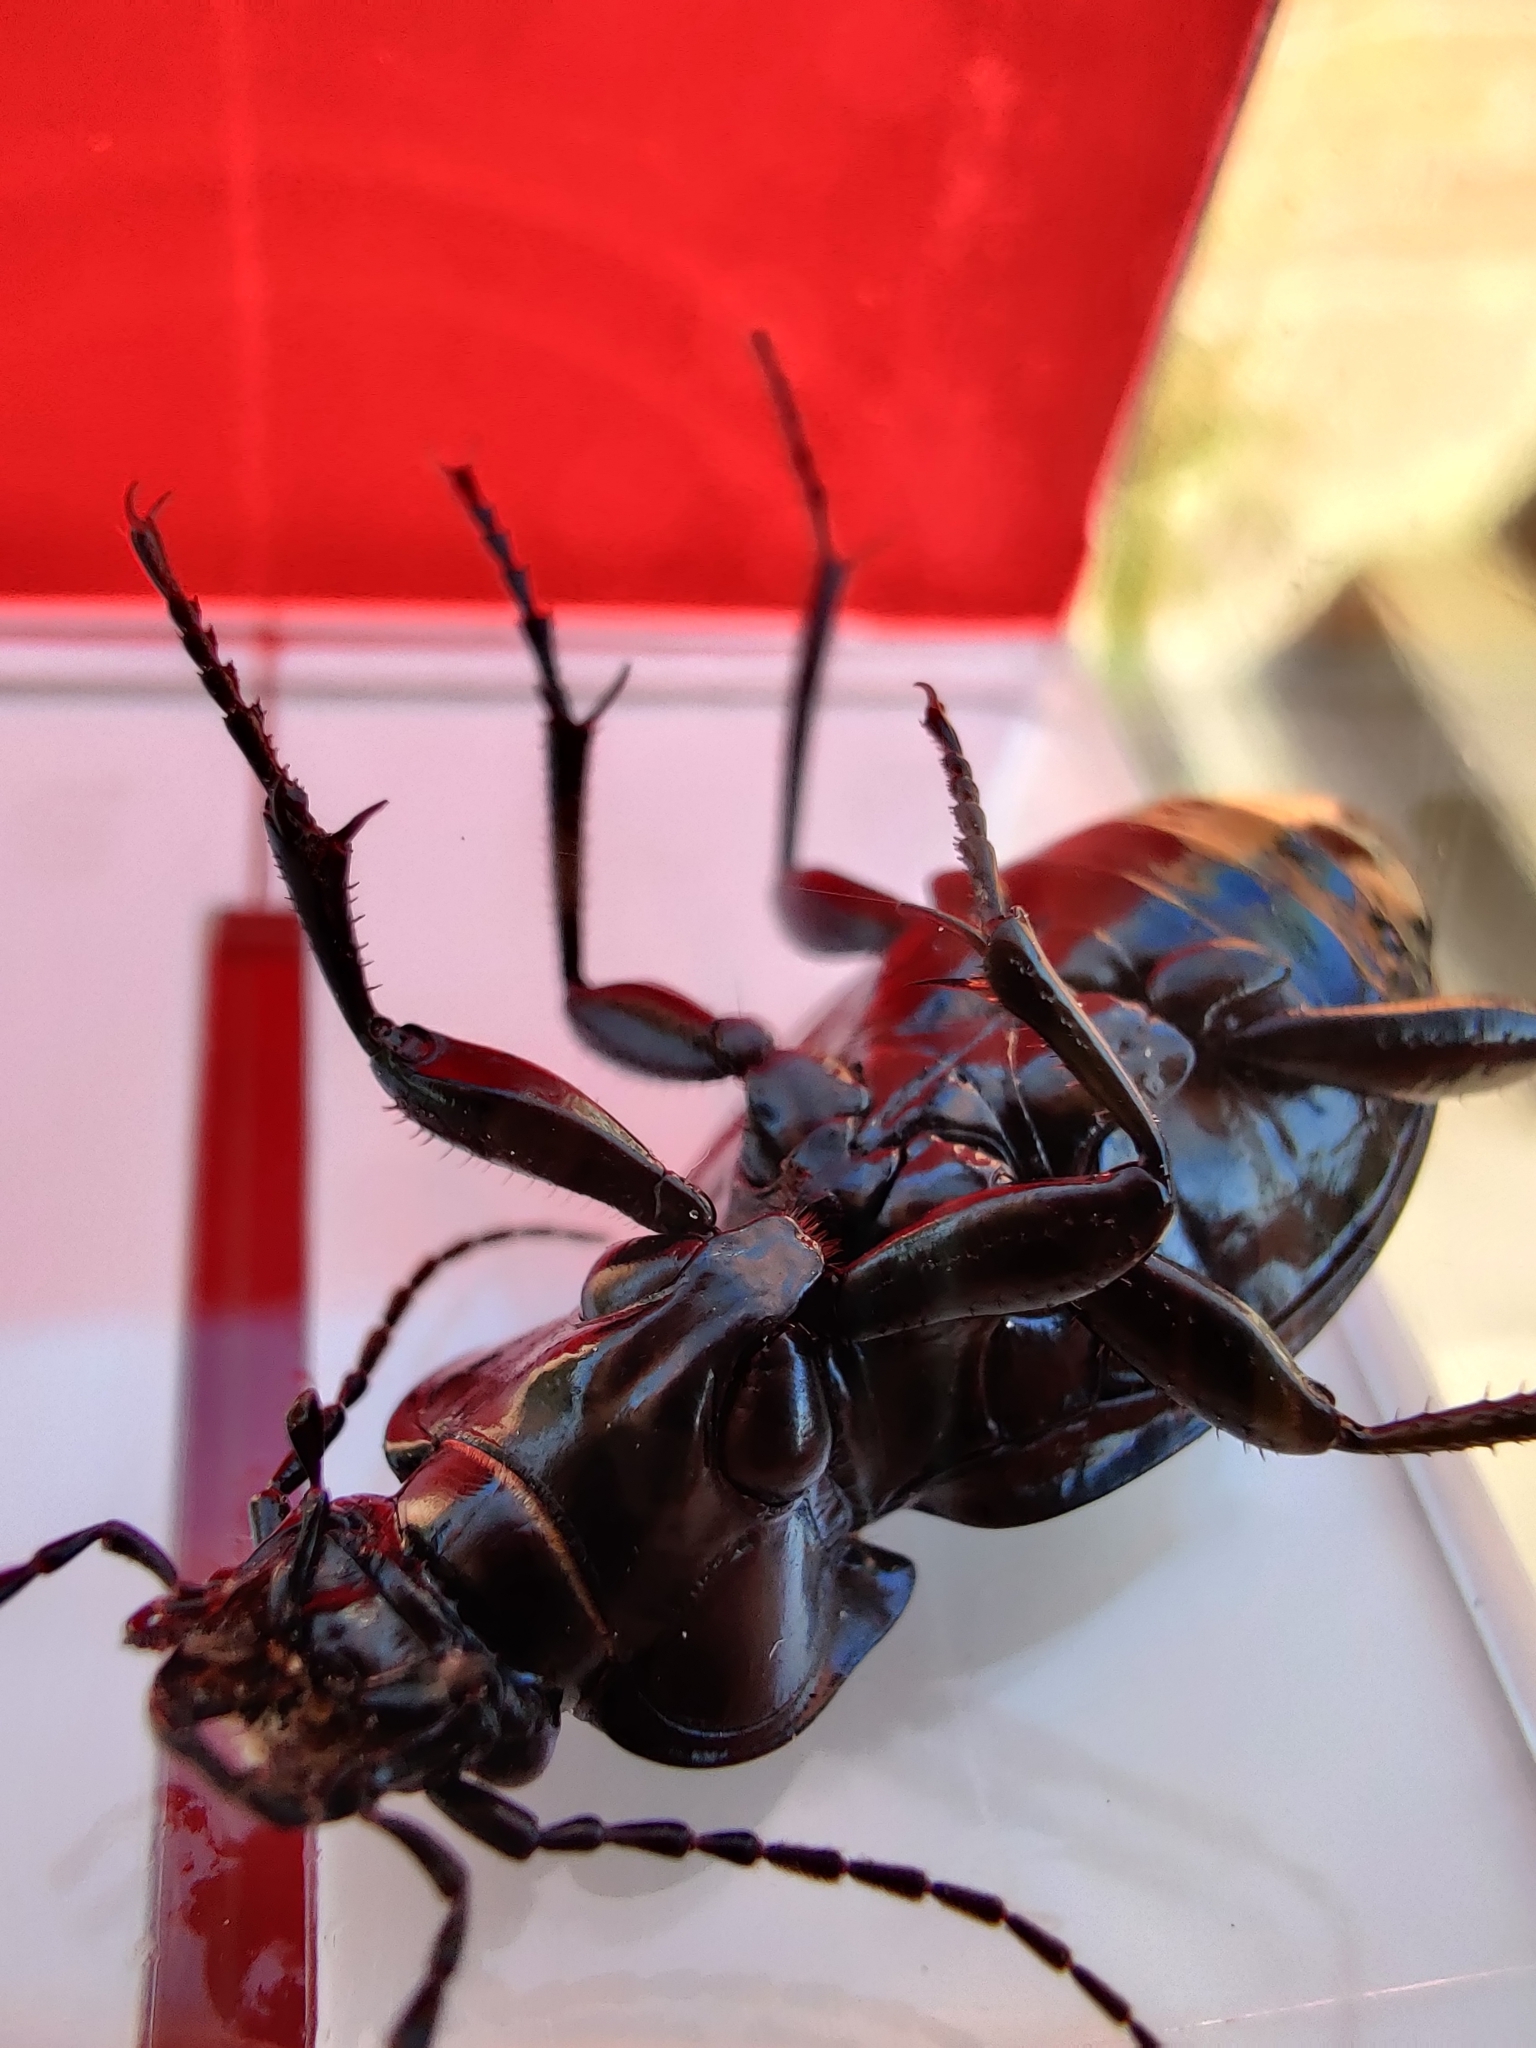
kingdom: Animalia
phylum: Arthropoda
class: Insecta
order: Coleoptera
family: Carabidae
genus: Carabus
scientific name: Carabus nemoralis
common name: European ground beetle
